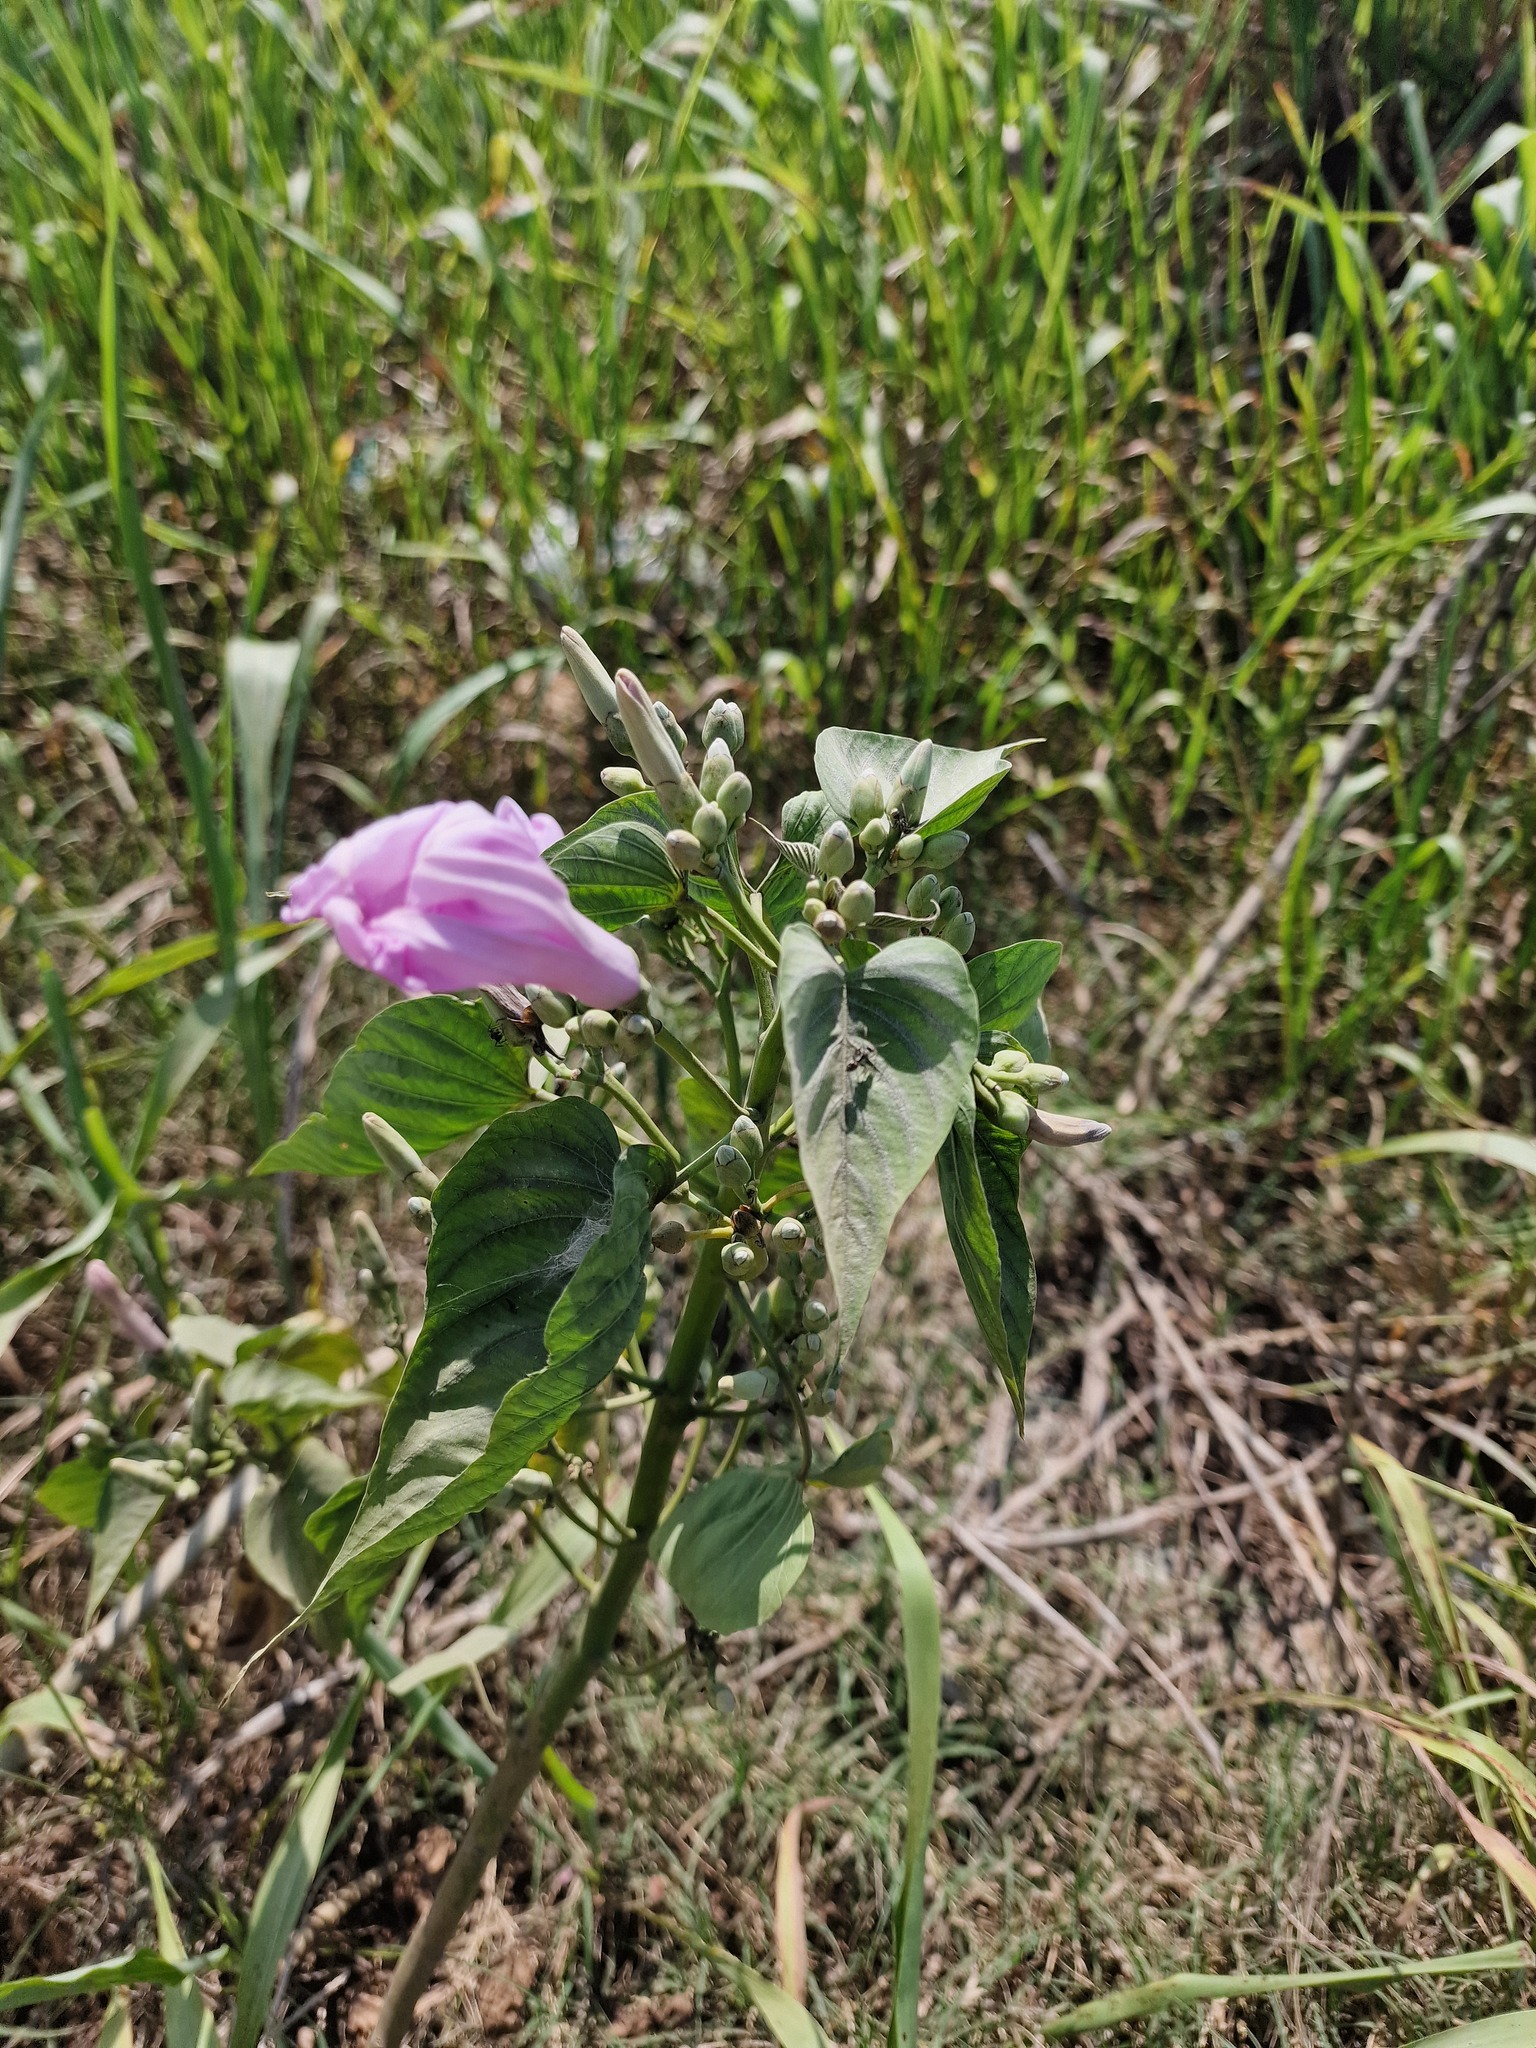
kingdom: Plantae
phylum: Tracheophyta
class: Magnoliopsida
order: Solanales
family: Convolvulaceae
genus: Ipomoea
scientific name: Ipomoea carnea
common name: Morning-glory
